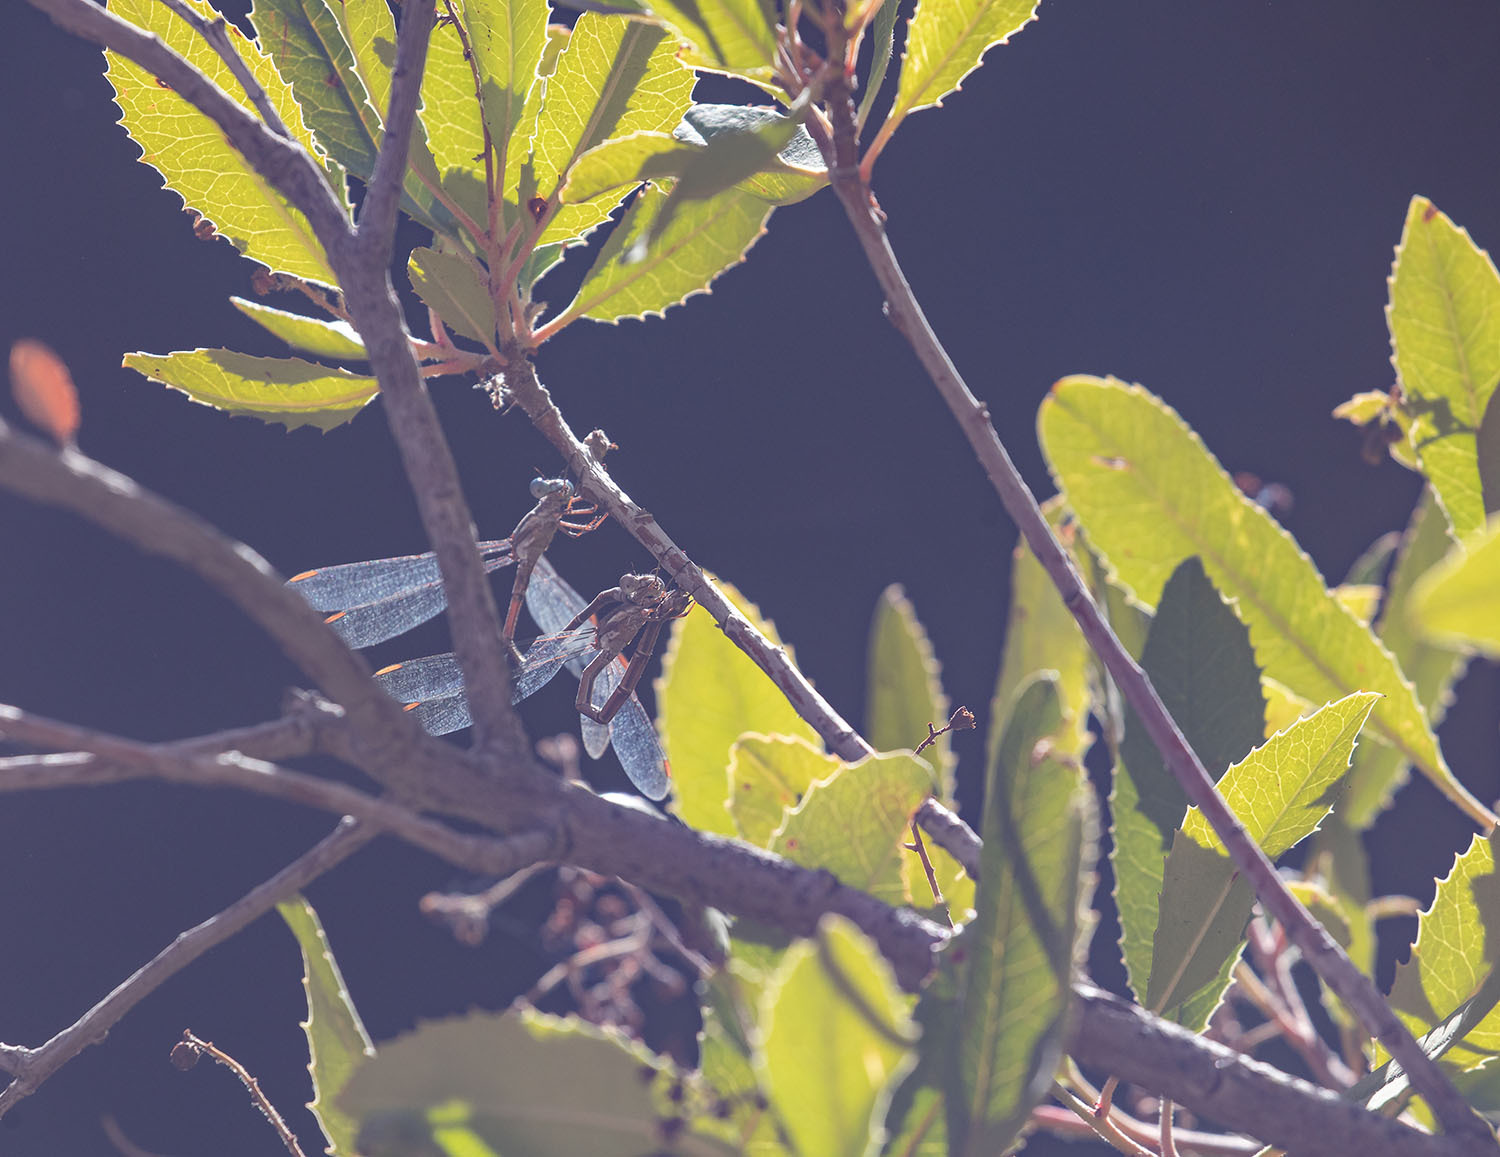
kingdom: Animalia
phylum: Arthropoda
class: Insecta
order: Odonata
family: Lestidae
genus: Archilestes
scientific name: Archilestes californicus
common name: California spreadwing
